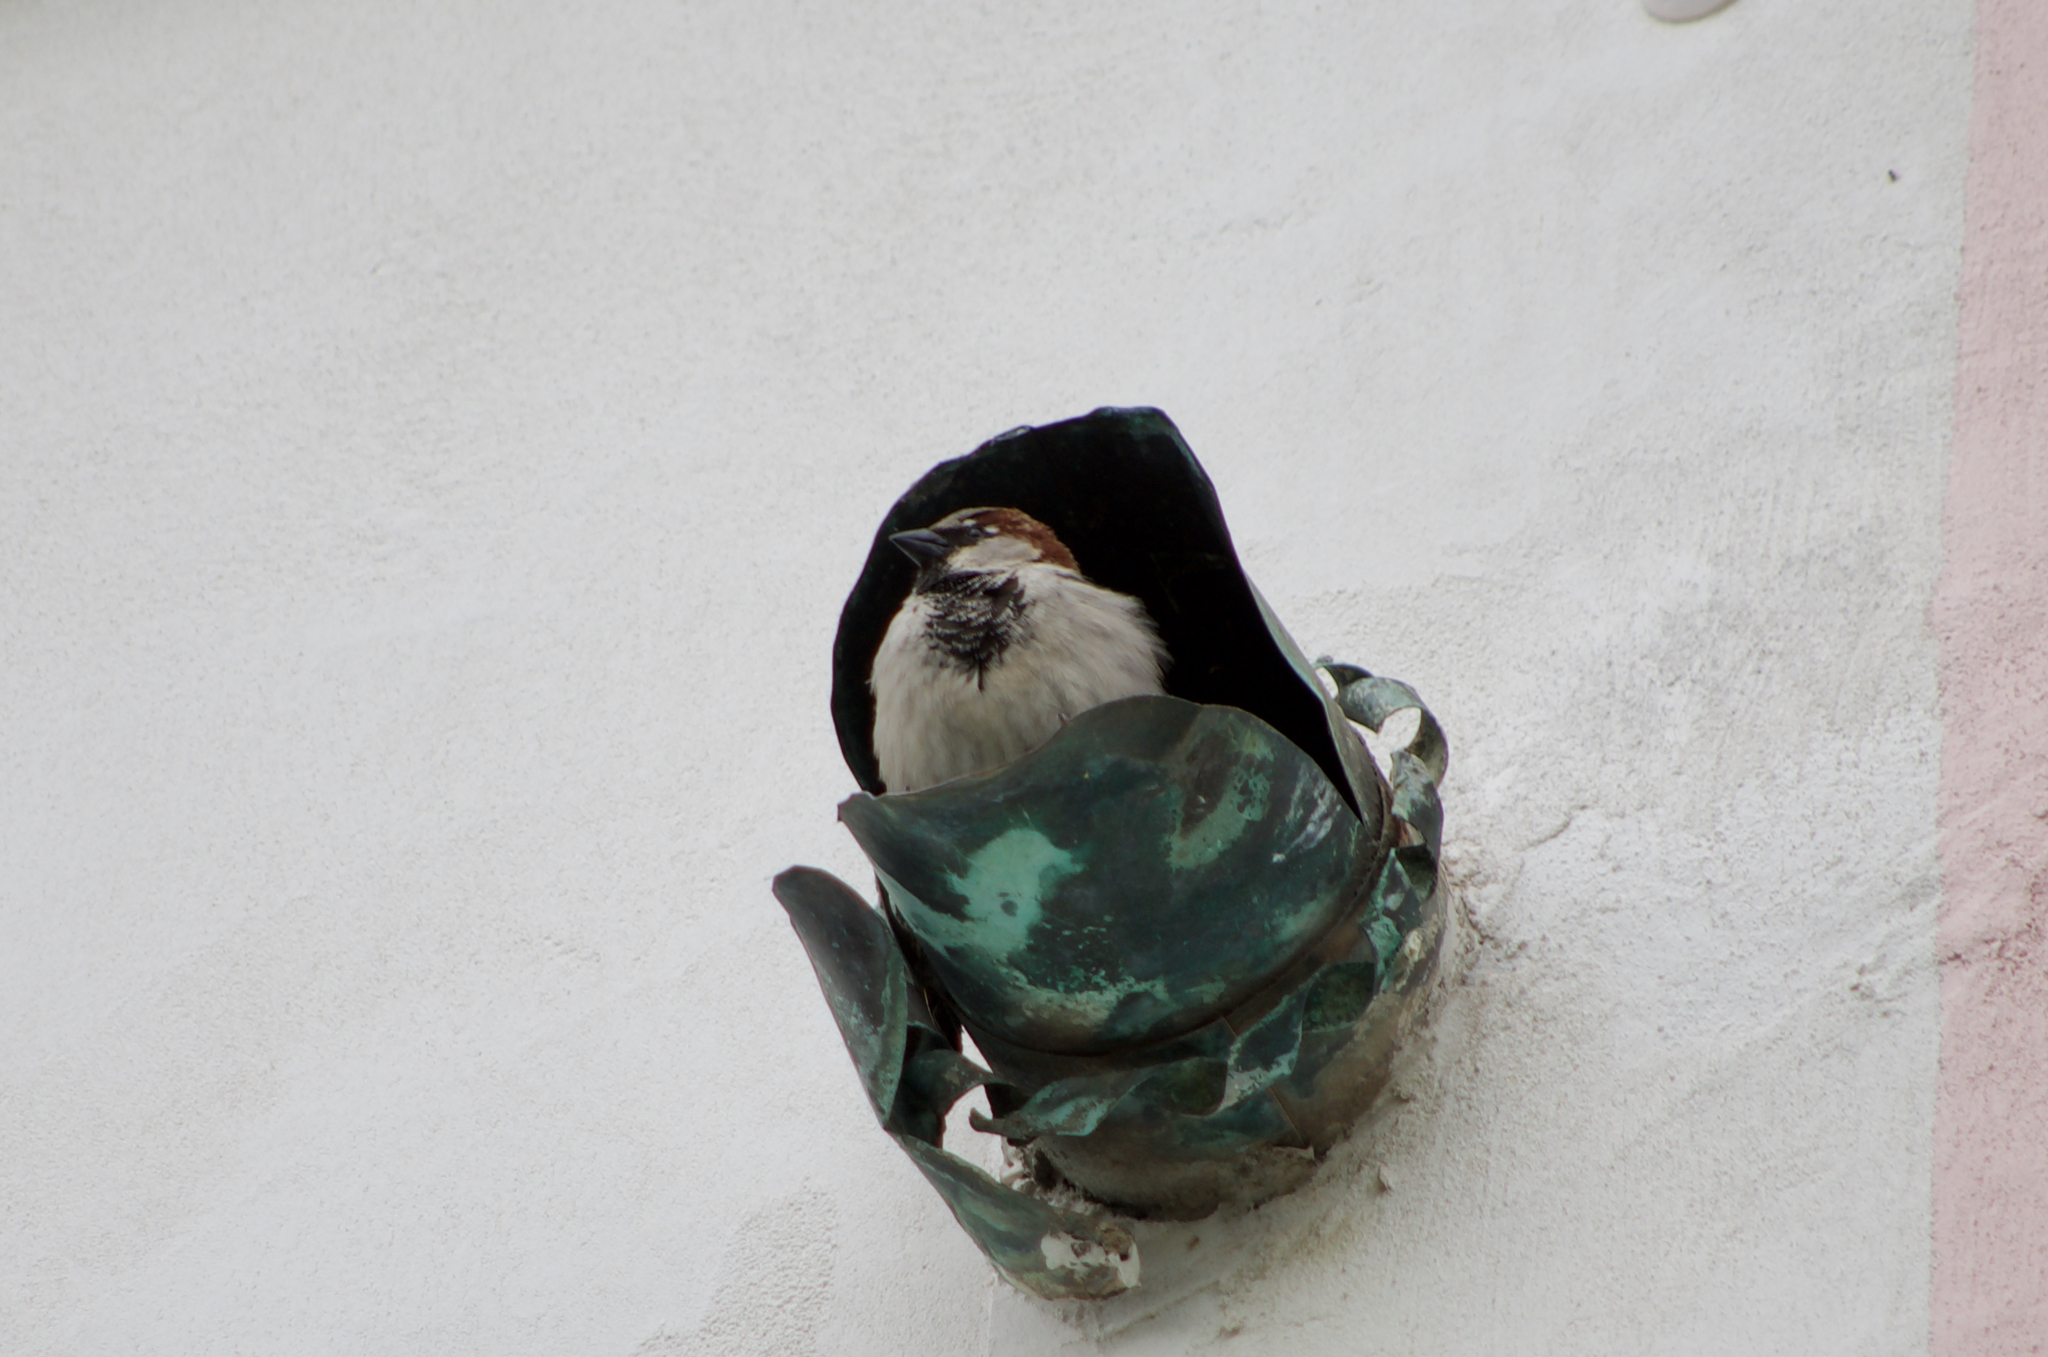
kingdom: Animalia
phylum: Chordata
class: Aves
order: Passeriformes
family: Passeridae
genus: Passer
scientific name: Passer domesticus
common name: House sparrow
